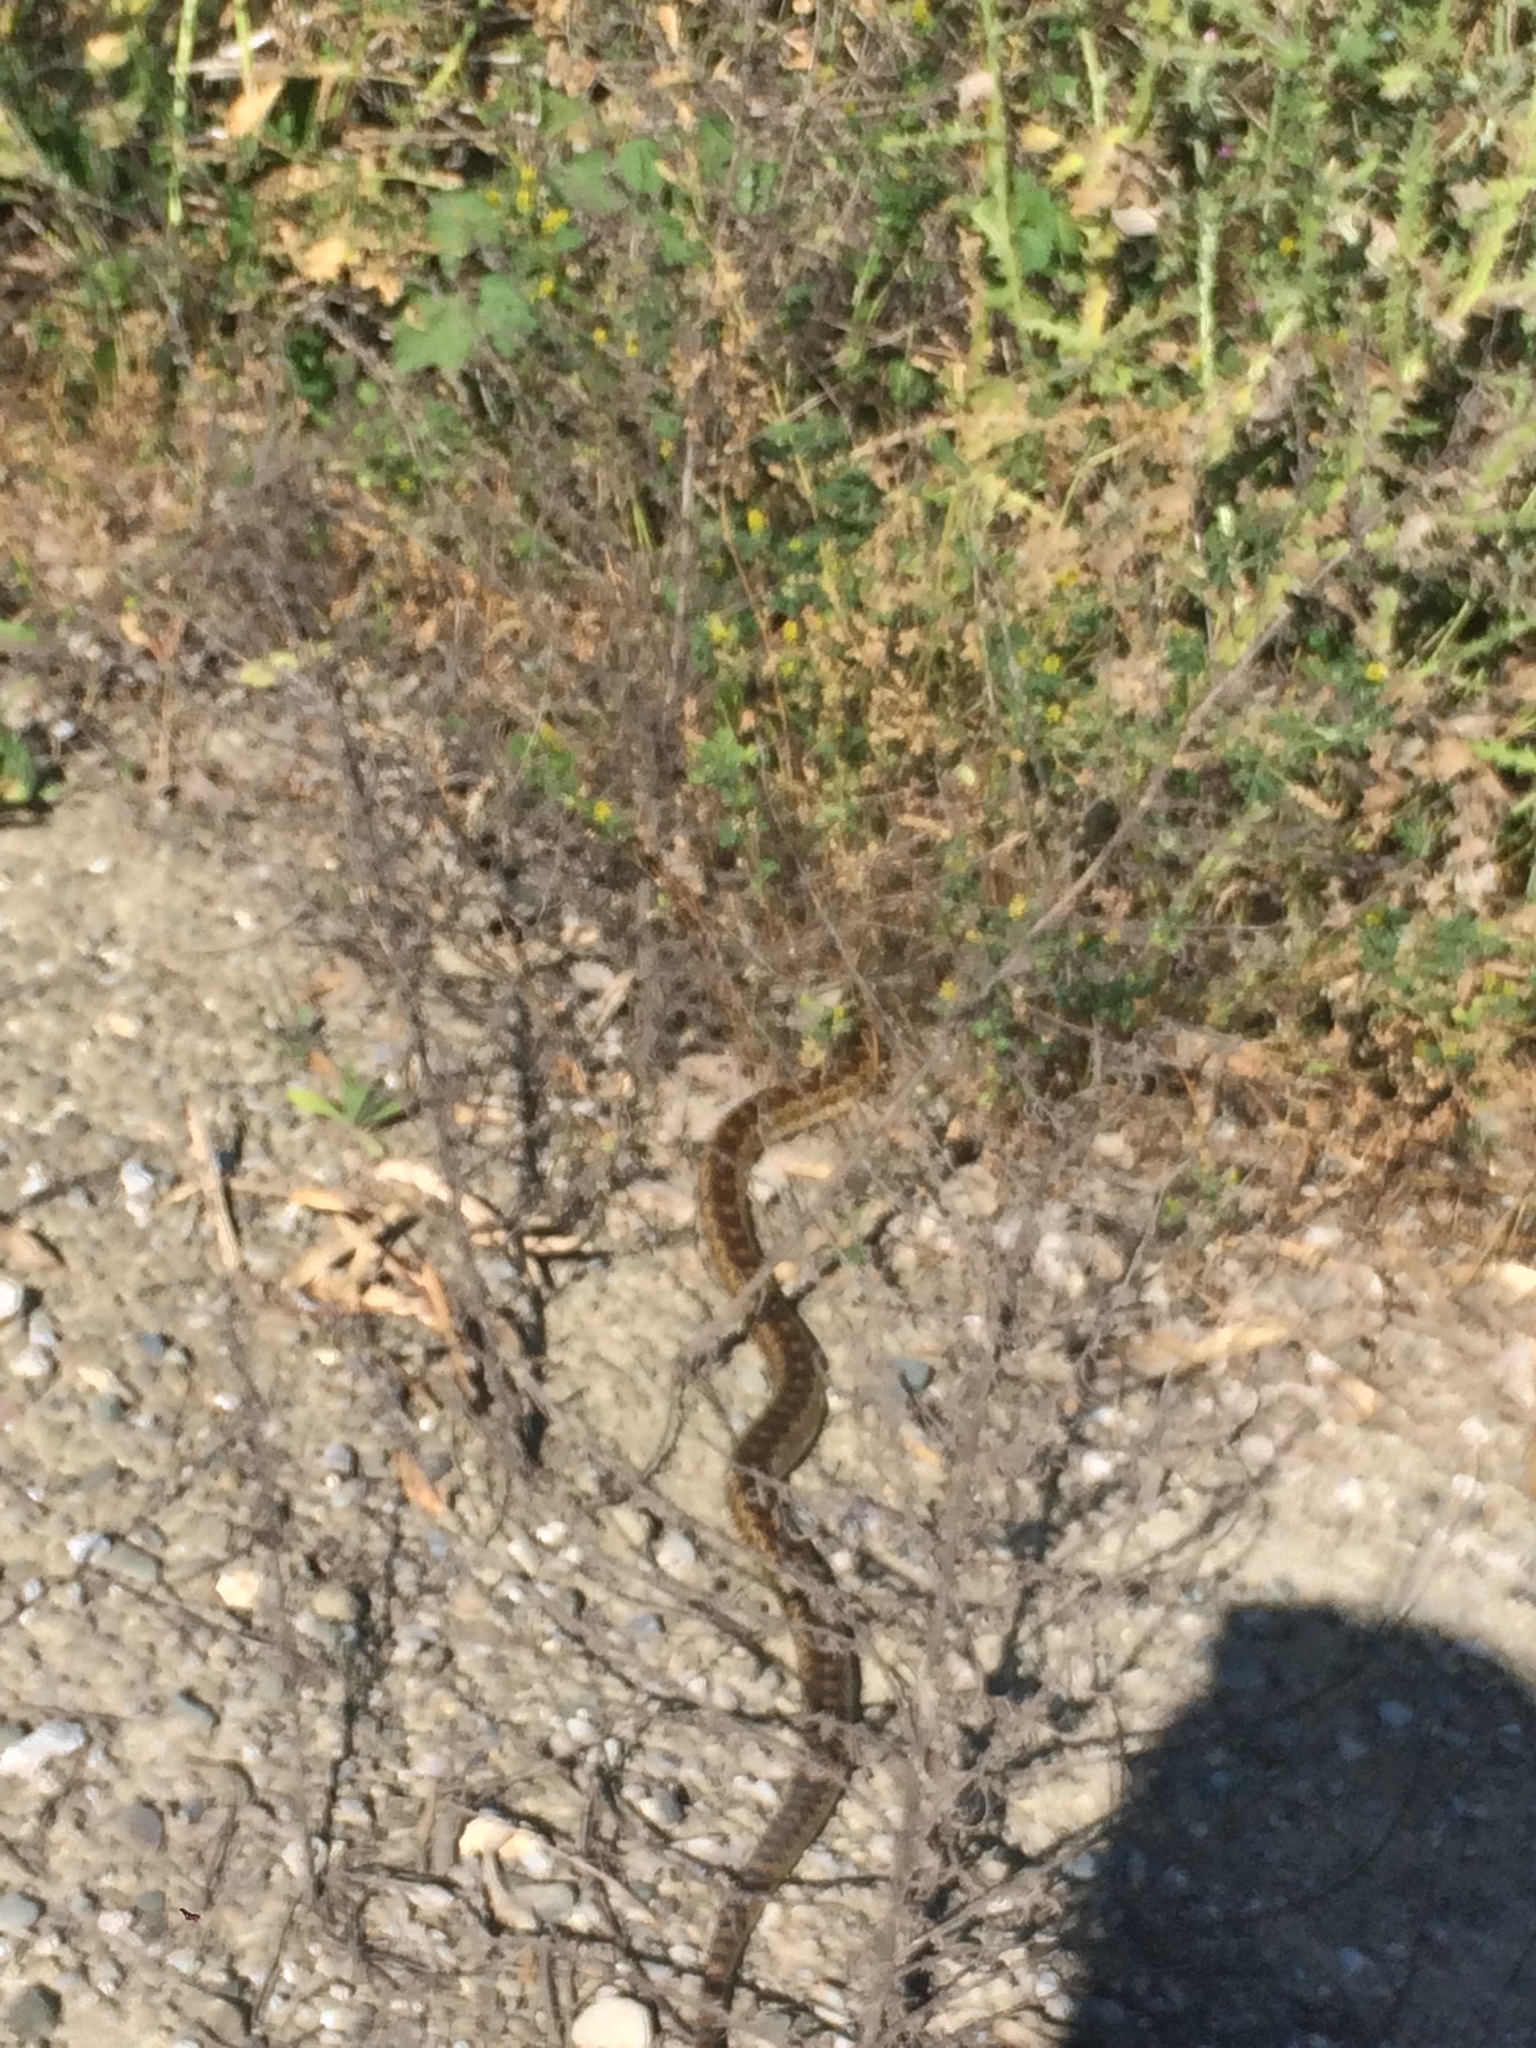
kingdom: Animalia
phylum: Chordata
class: Squamata
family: Colubridae
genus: Pituophis
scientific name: Pituophis catenifer
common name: Gopher snake
